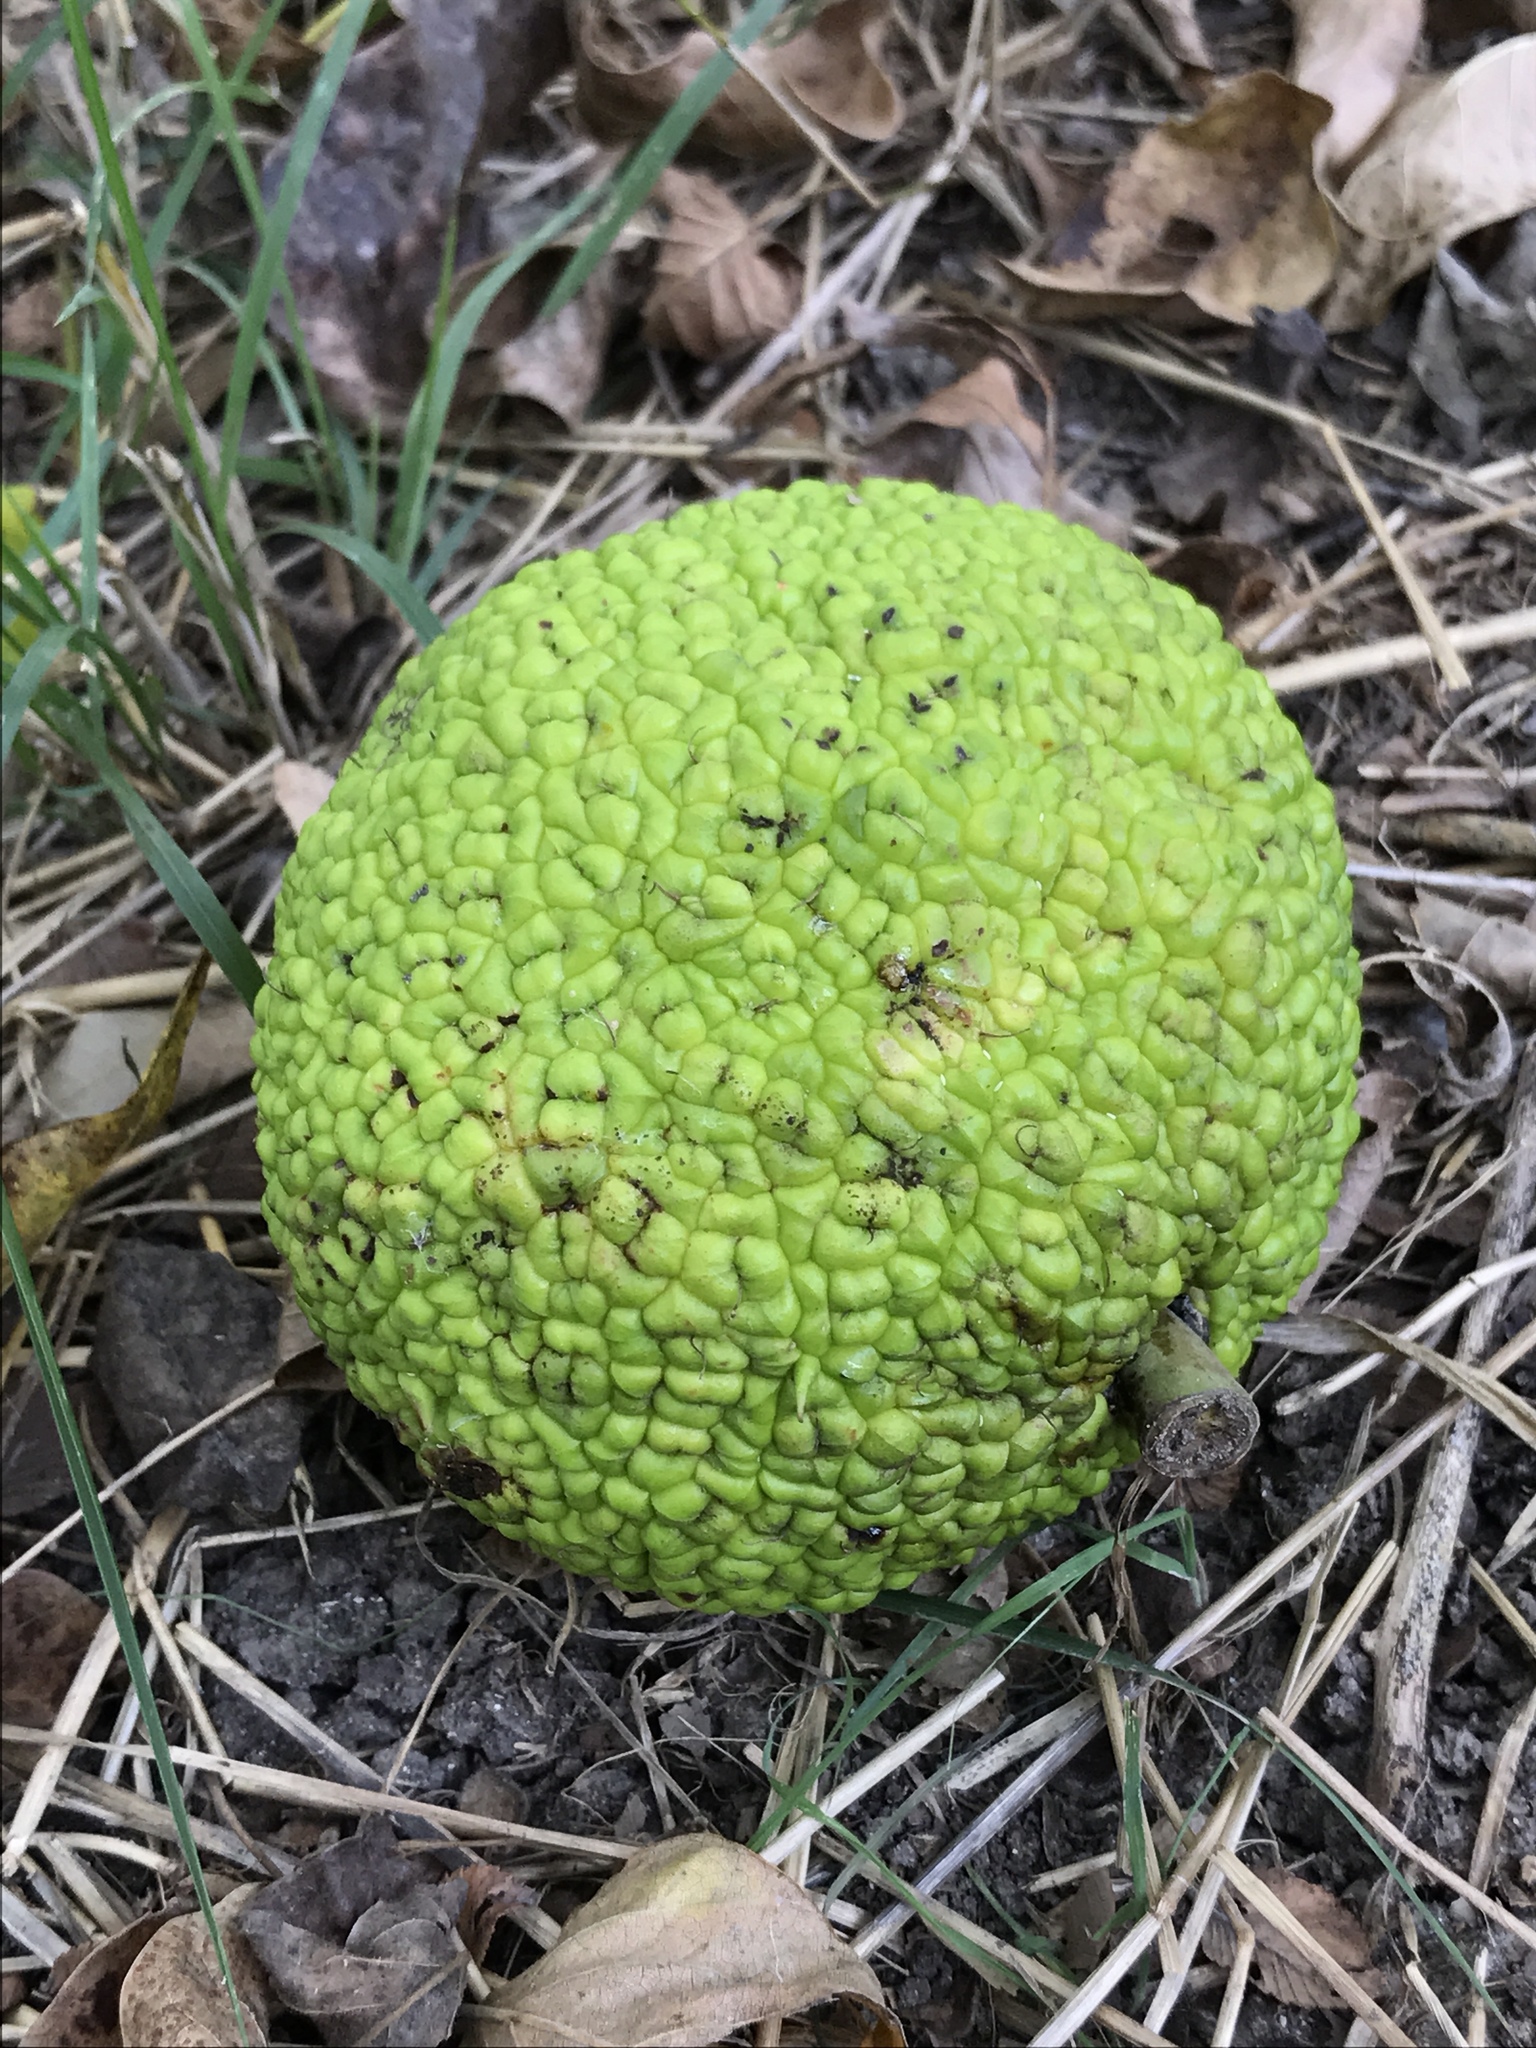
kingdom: Plantae
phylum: Tracheophyta
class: Magnoliopsida
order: Rosales
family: Moraceae
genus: Maclura
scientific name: Maclura pomifera
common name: Osage-orange
